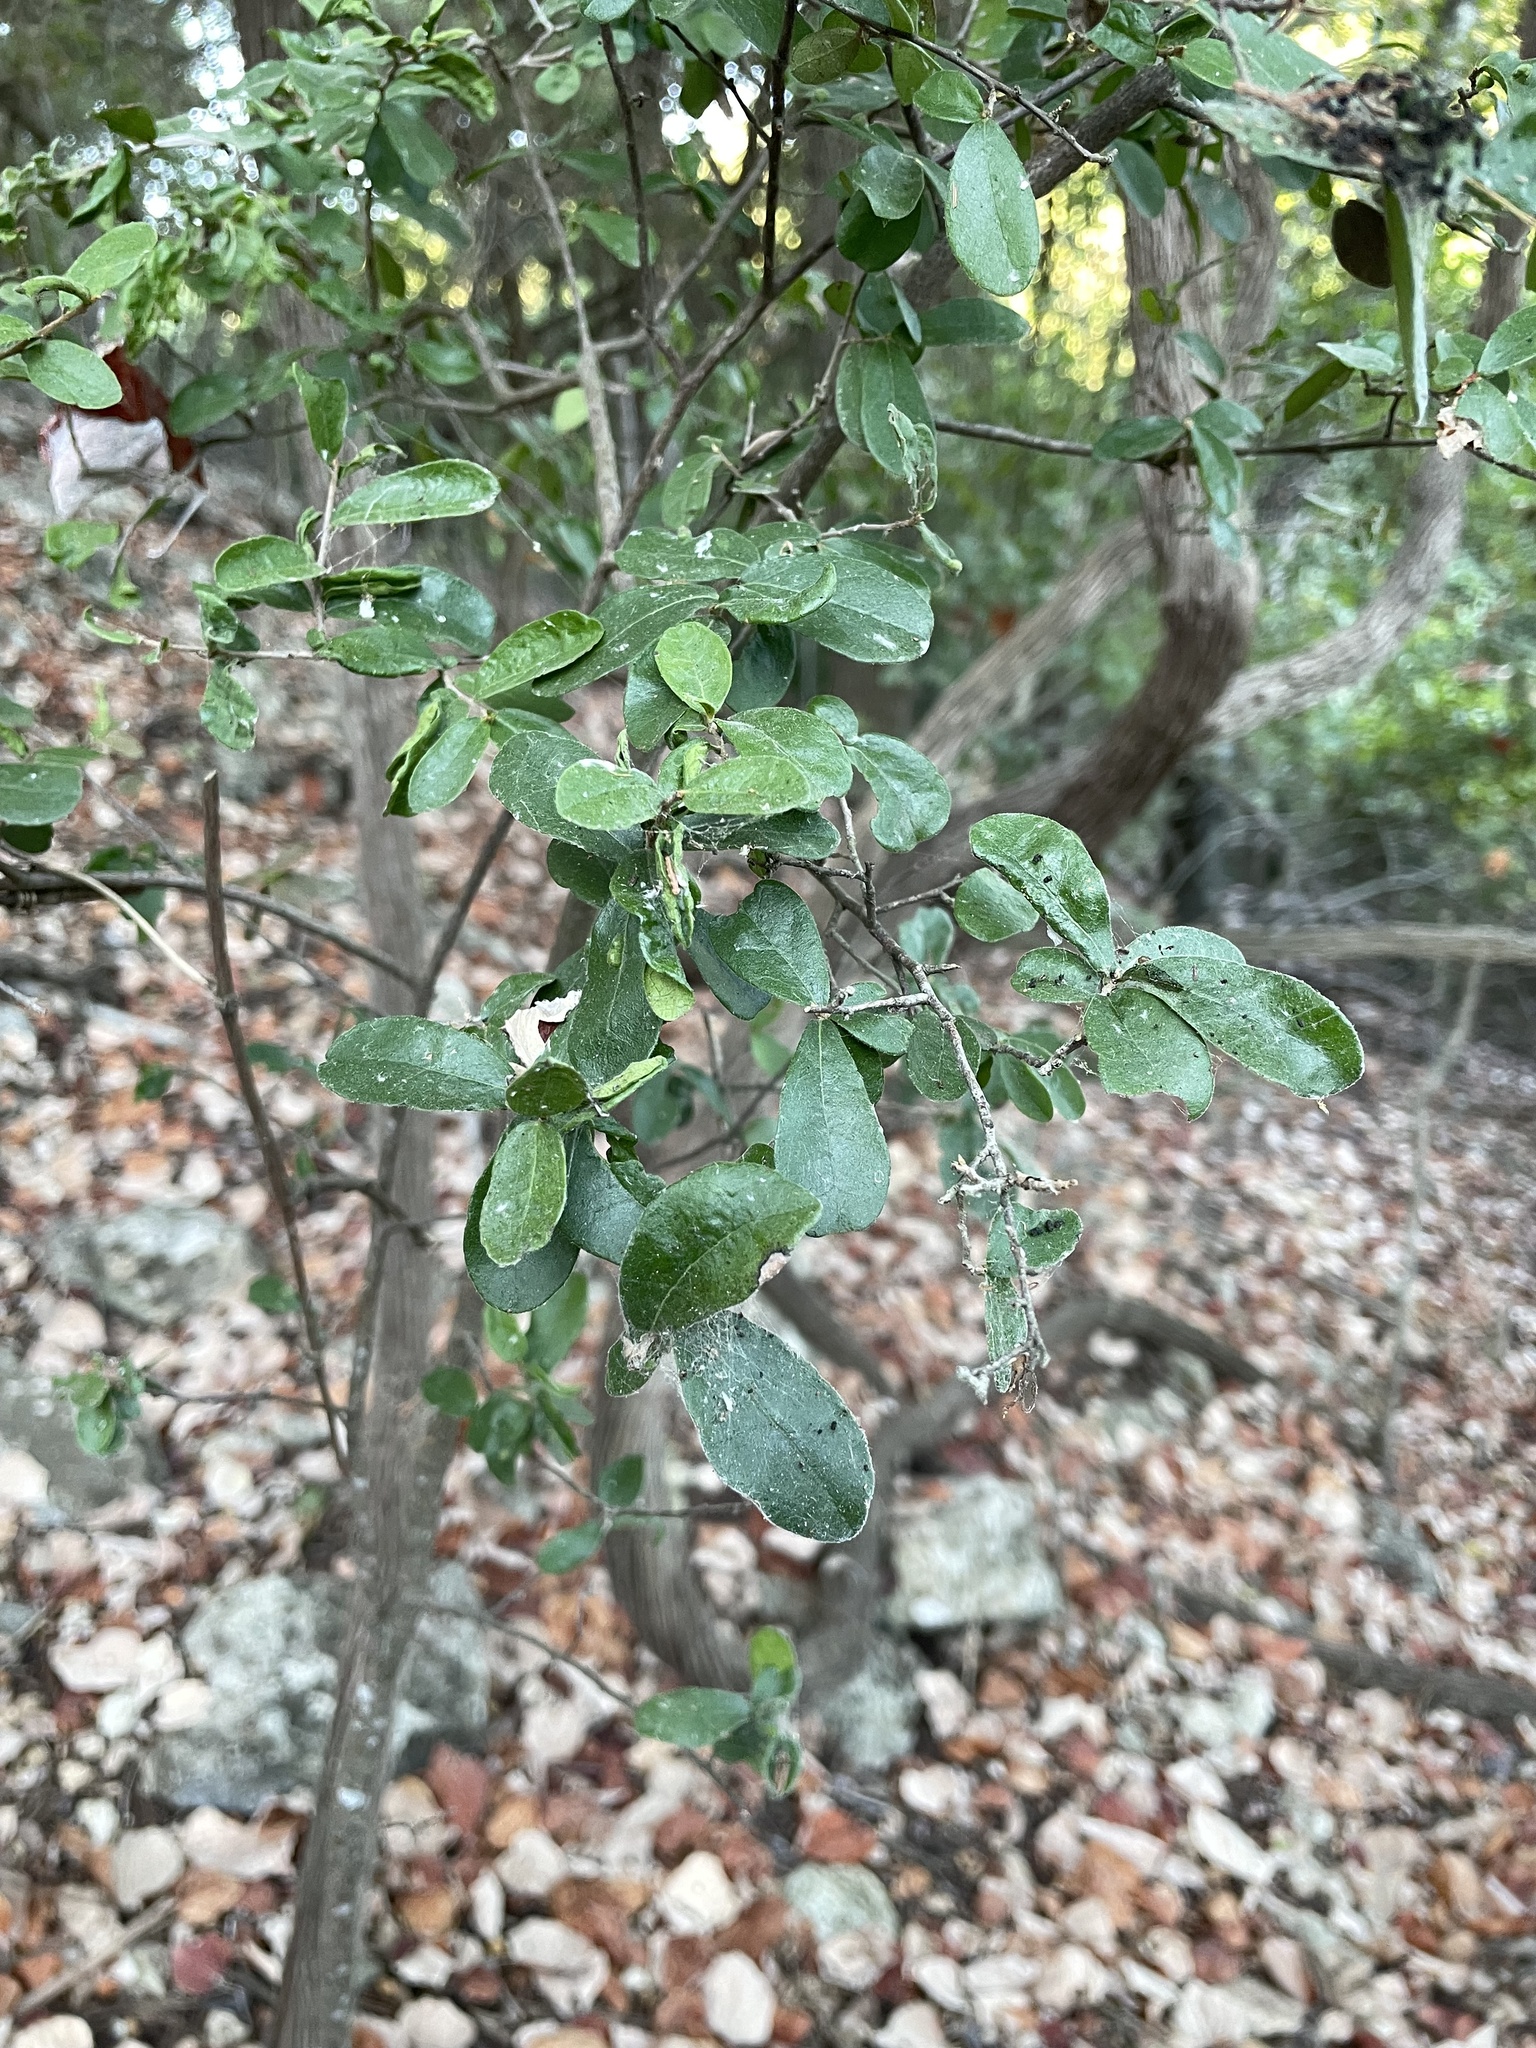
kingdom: Plantae
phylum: Tracheophyta
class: Magnoliopsida
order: Ericales
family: Ebenaceae
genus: Diospyros
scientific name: Diospyros texana
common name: Texas persimmon
